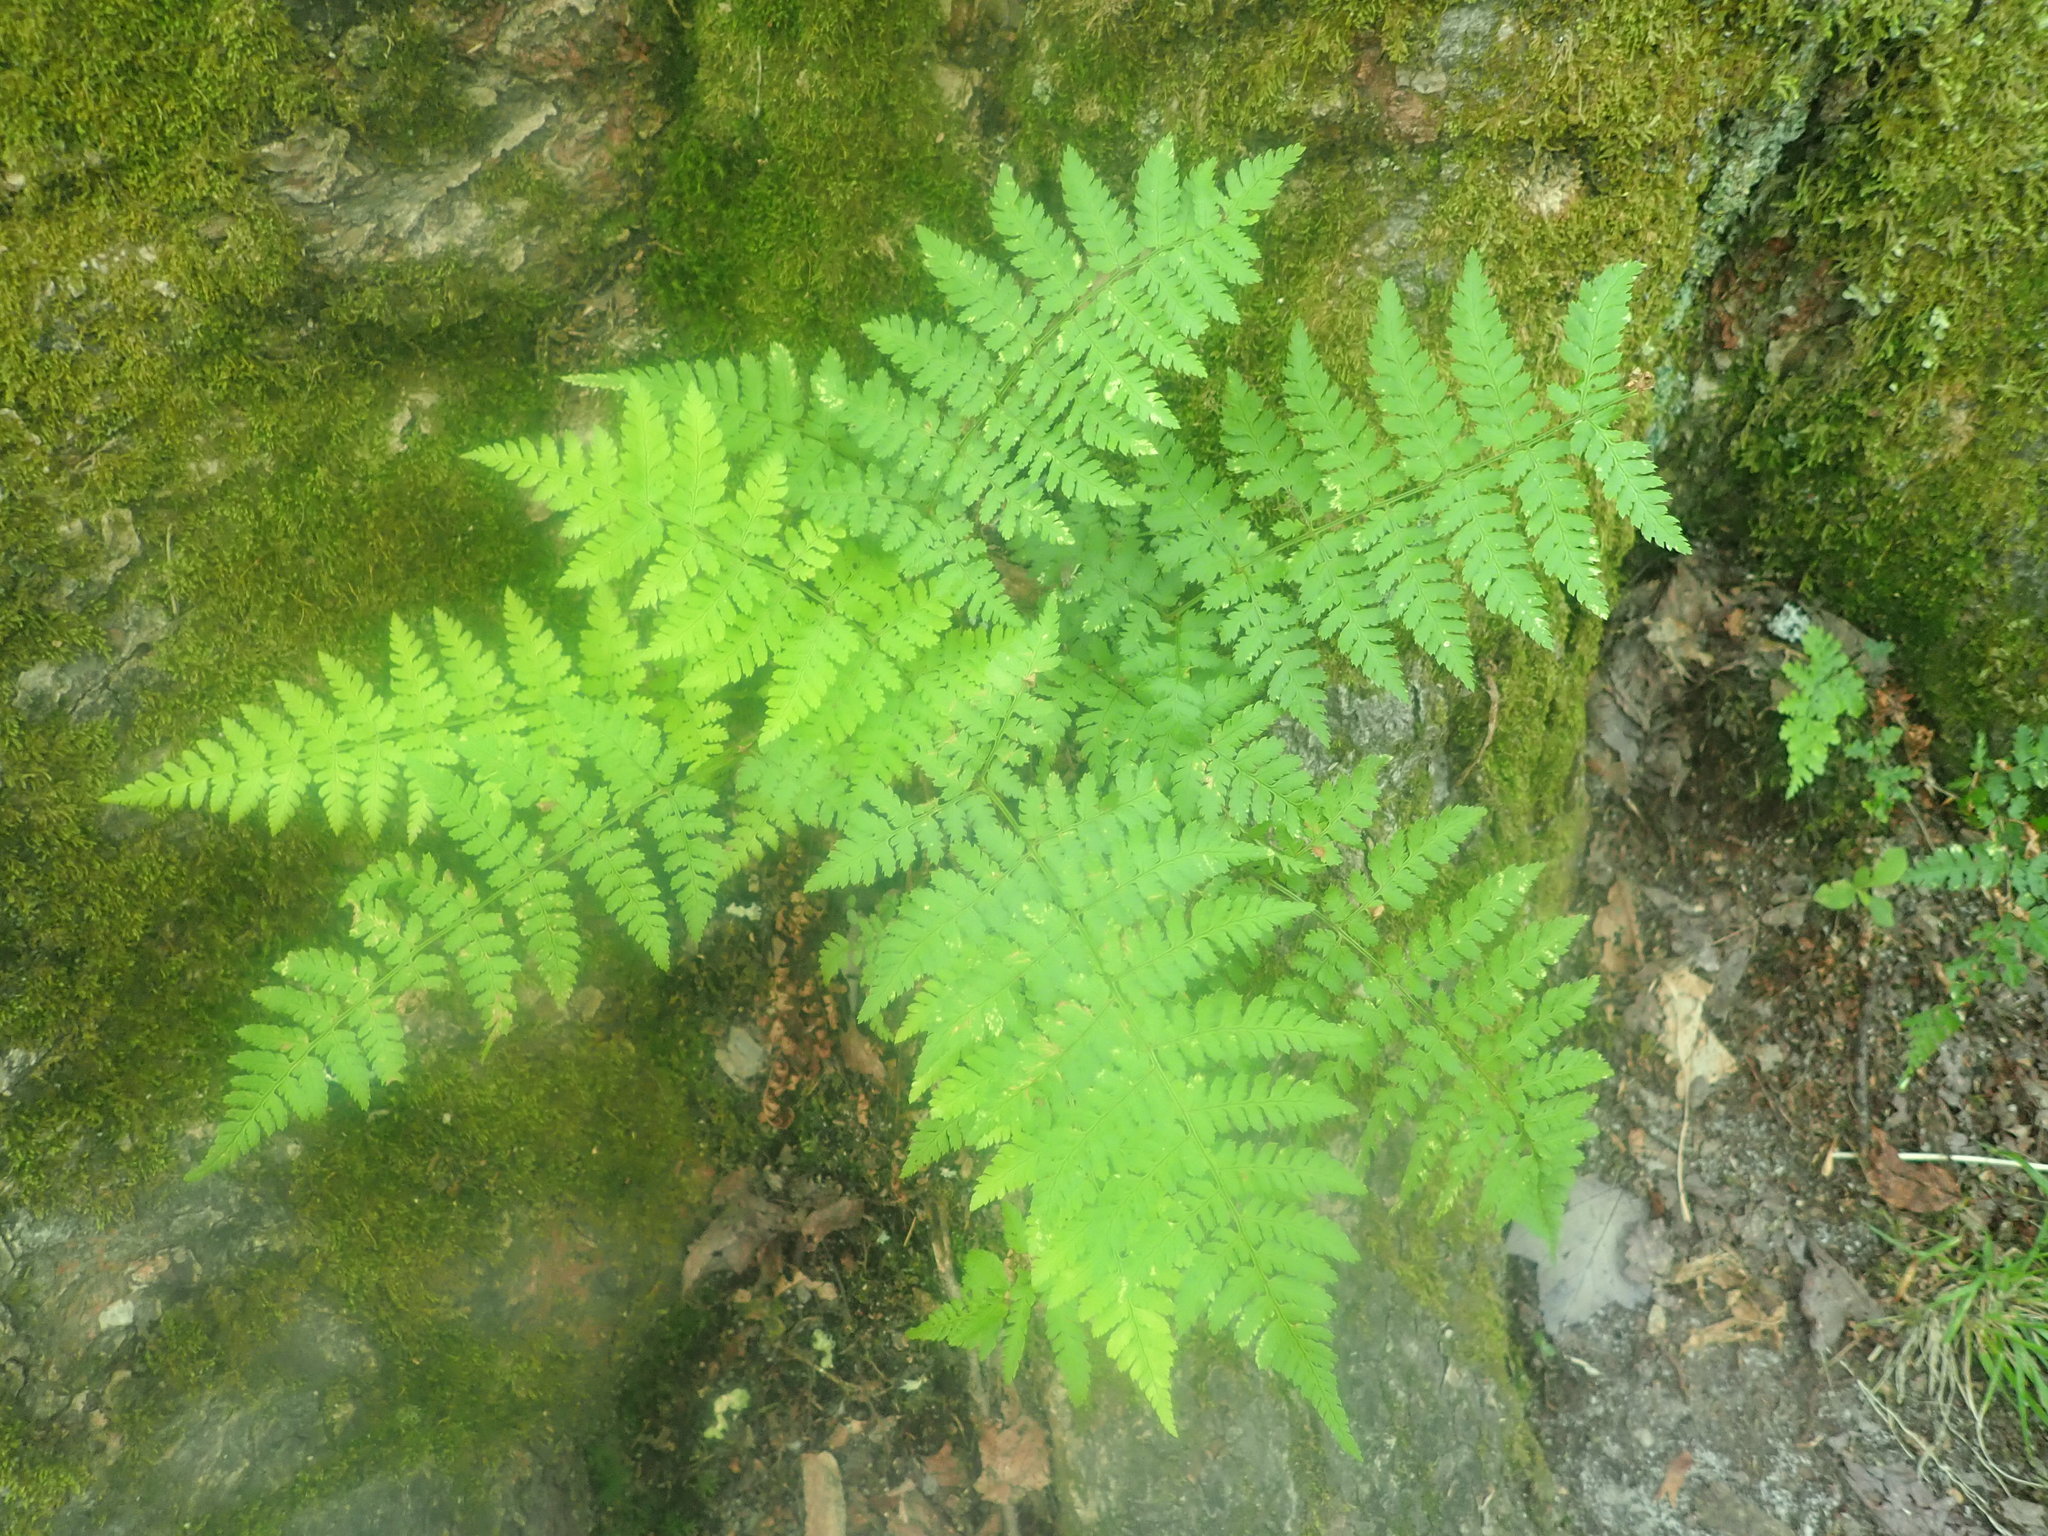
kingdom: Plantae
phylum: Tracheophyta
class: Polypodiopsida
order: Polypodiales
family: Dryopteridaceae
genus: Dryopteris
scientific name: Dryopteris intermedia
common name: Evergreen wood fern
